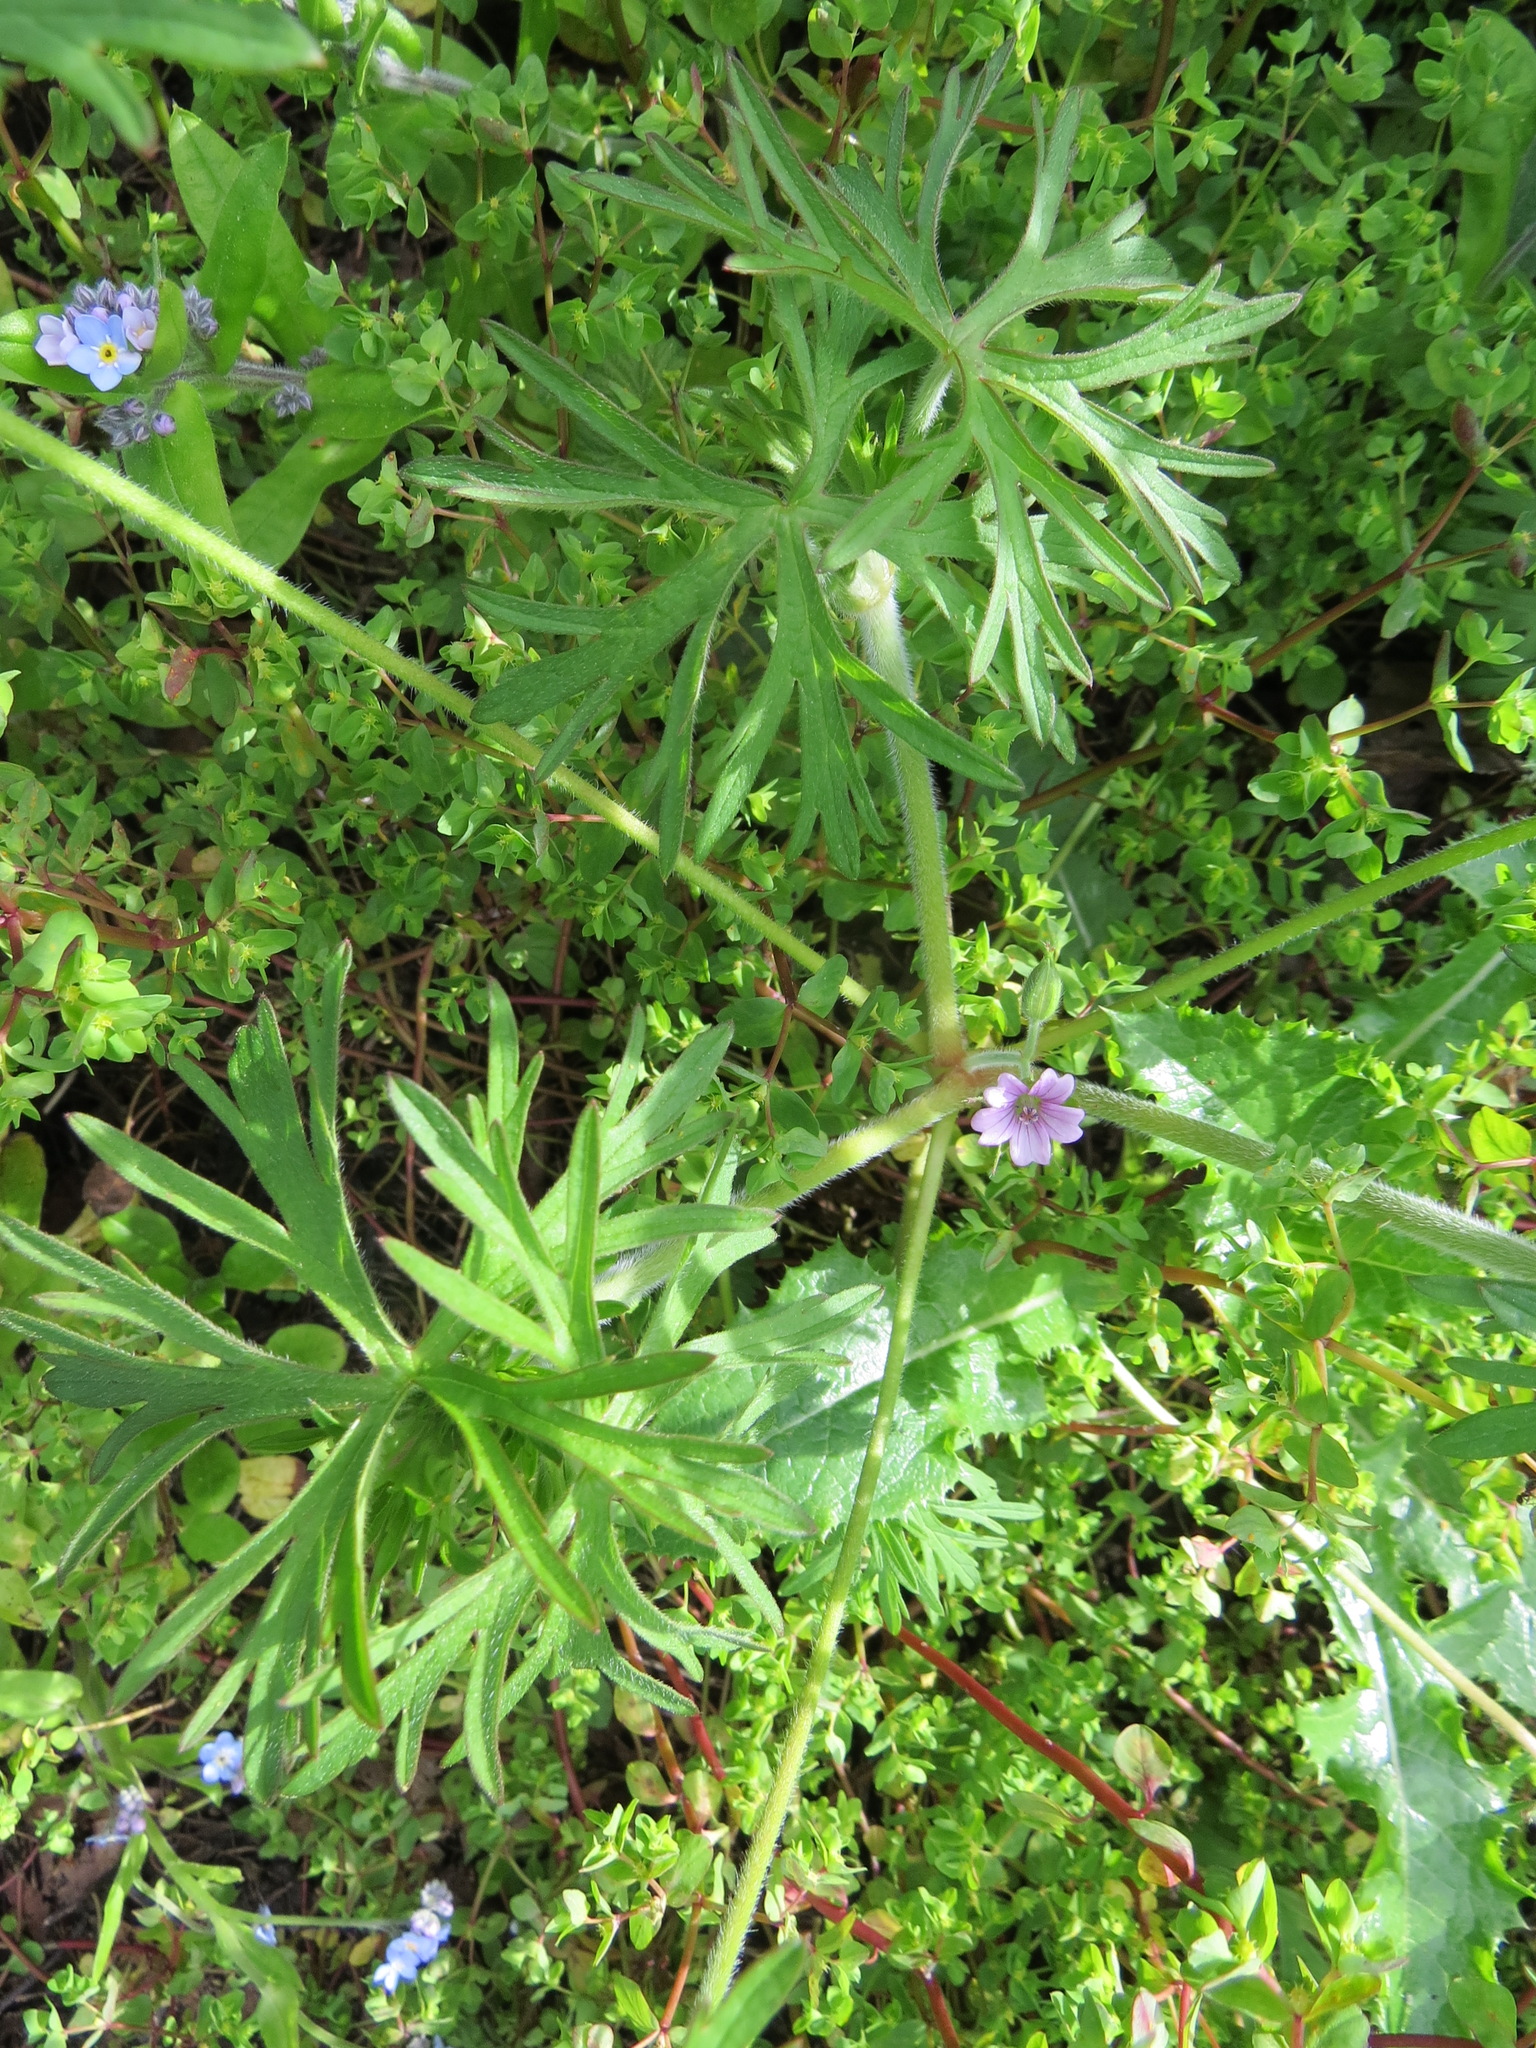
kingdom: Plantae
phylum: Tracheophyta
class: Magnoliopsida
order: Geraniales
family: Geraniaceae
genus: Geranium
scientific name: Geranium dissectum
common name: Cut-leaved crane's-bill
